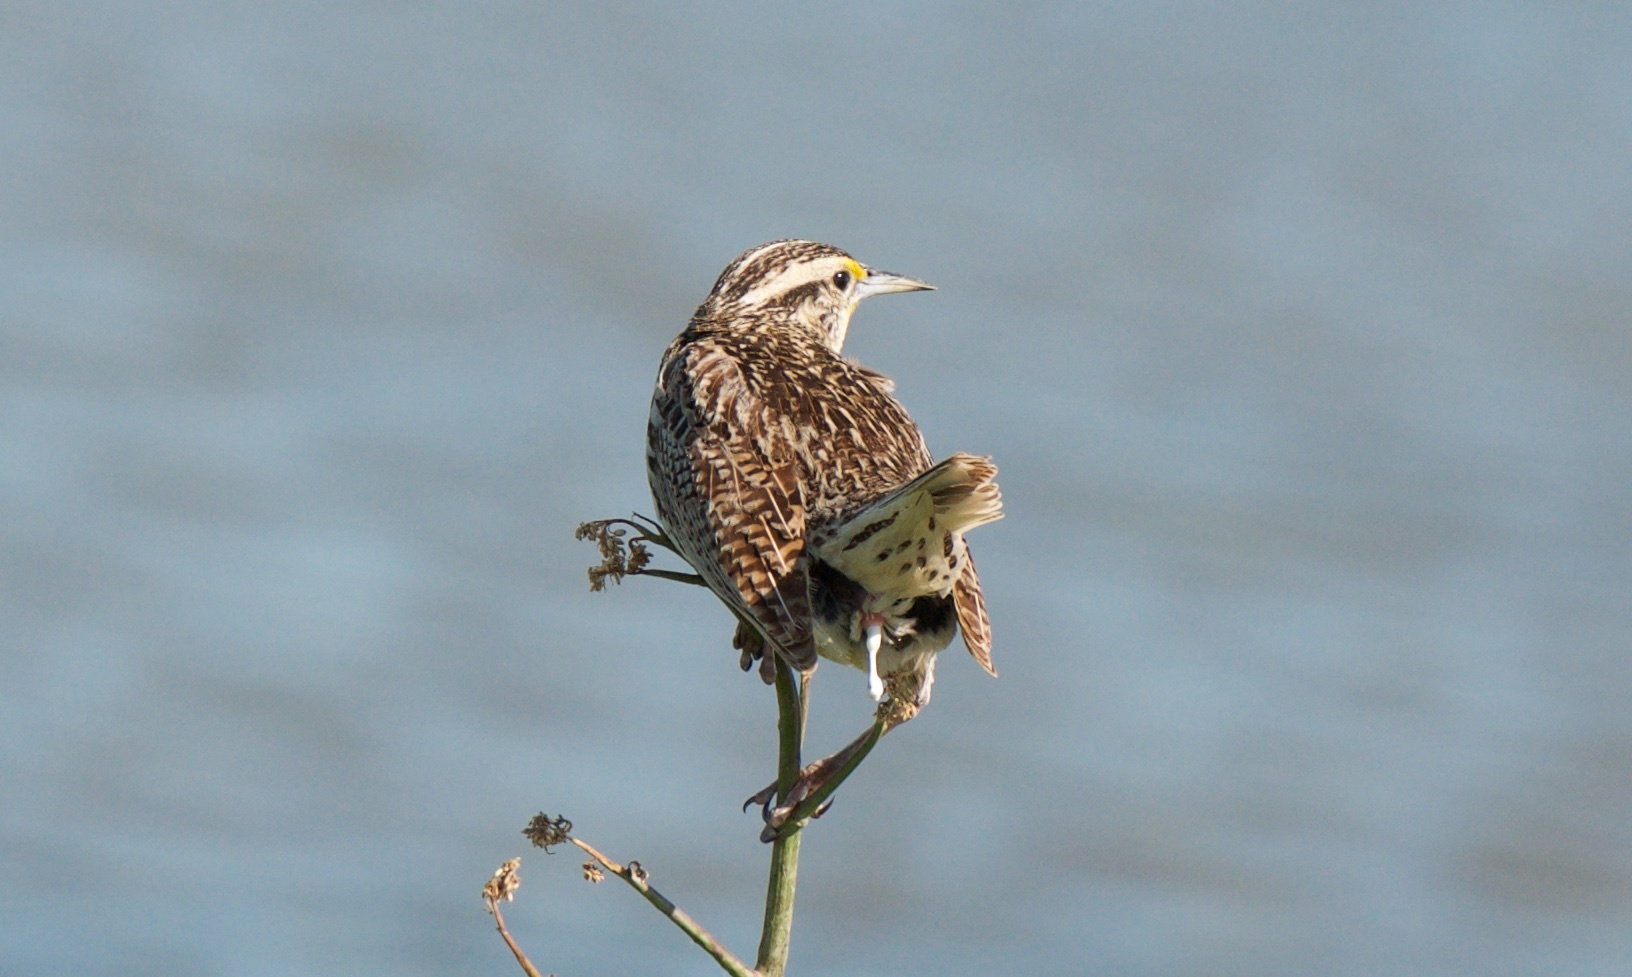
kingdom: Animalia
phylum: Chordata
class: Aves
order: Passeriformes
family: Icteridae
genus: Sturnella
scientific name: Sturnella neglecta
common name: Western meadowlark
